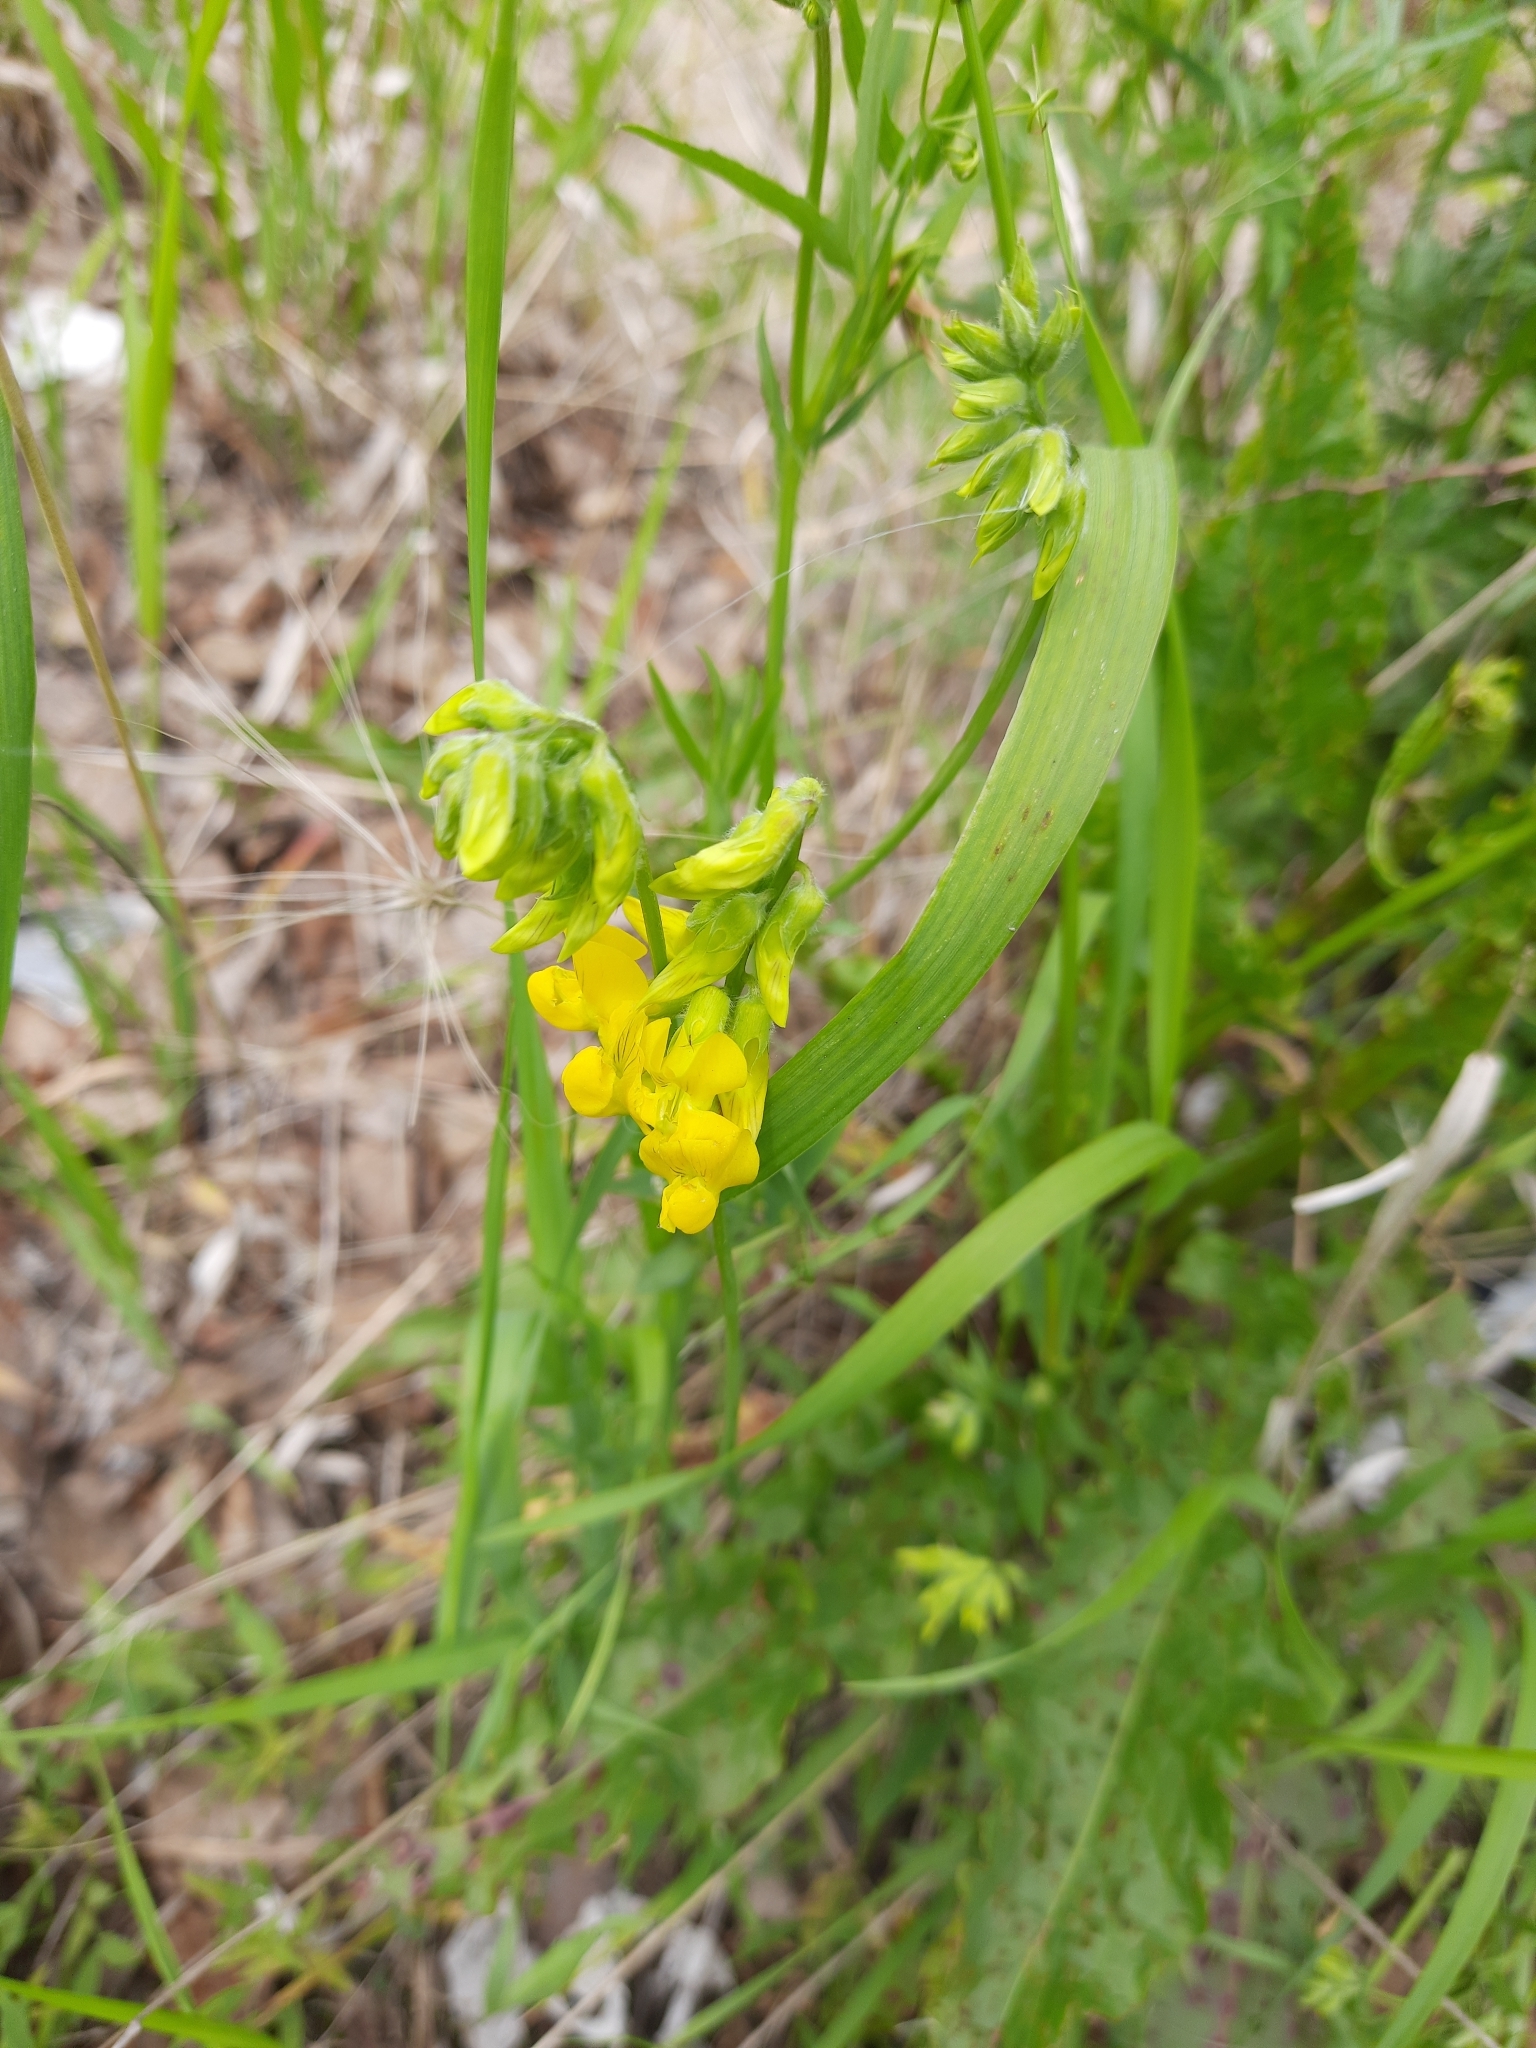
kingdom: Plantae
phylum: Tracheophyta
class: Magnoliopsida
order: Fabales
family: Fabaceae
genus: Lathyrus
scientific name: Lathyrus pratensis
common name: Meadow vetchling
